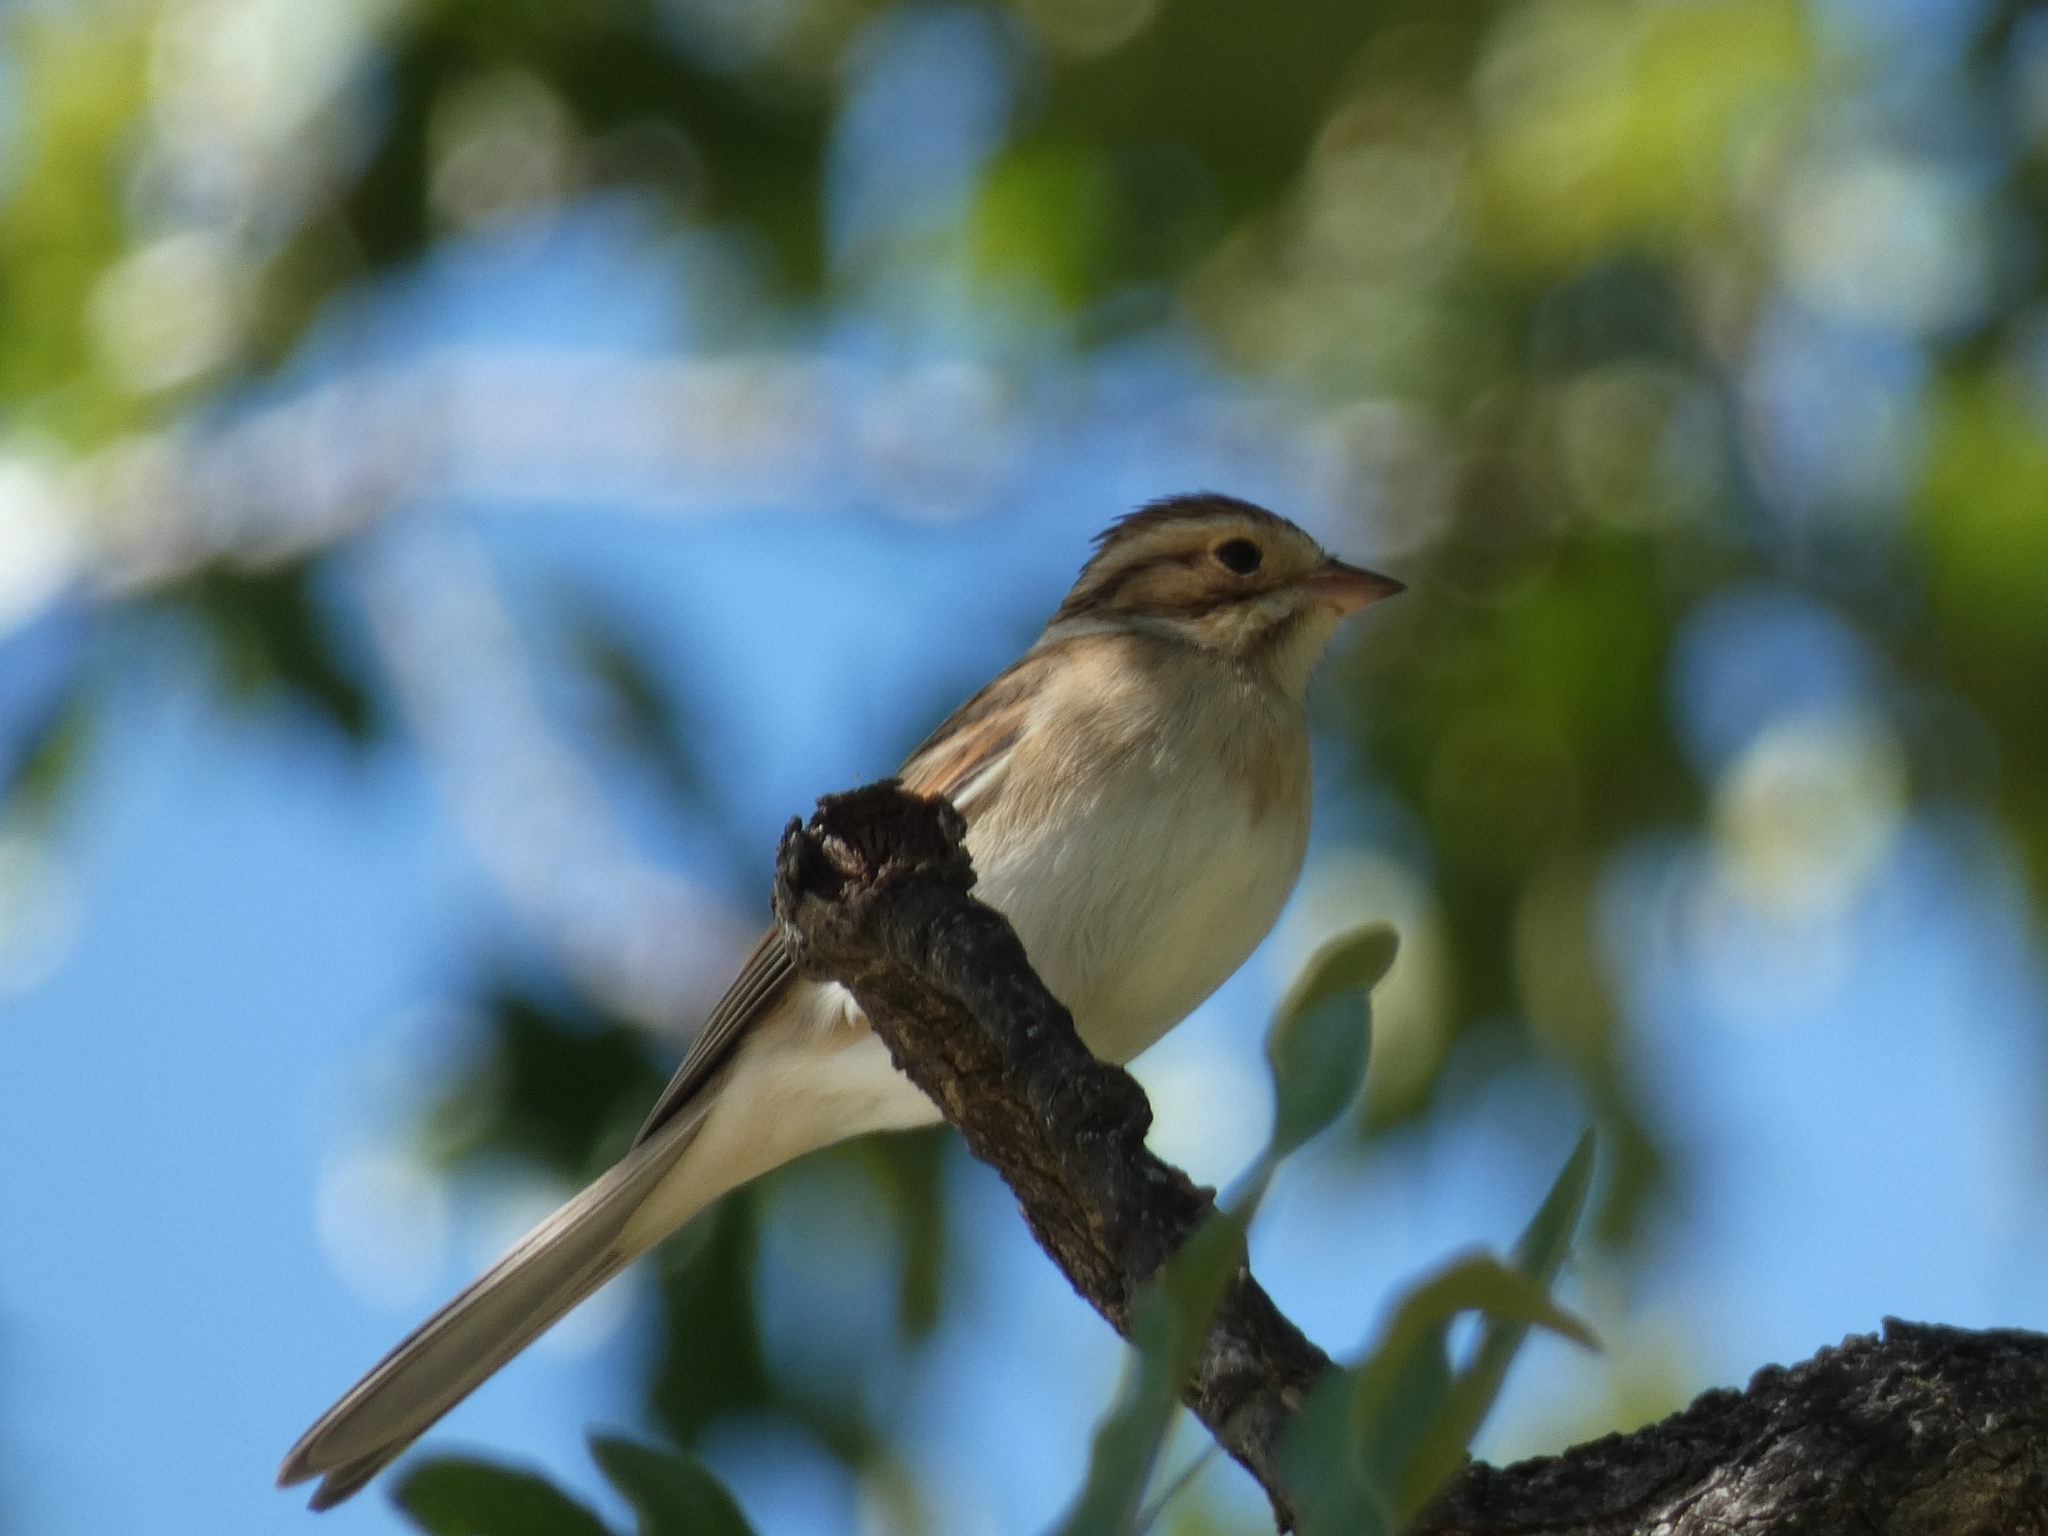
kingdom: Animalia
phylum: Chordata
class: Aves
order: Passeriformes
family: Passerellidae
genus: Spizella
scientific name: Spizella pallida
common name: Clay-colored sparrow
